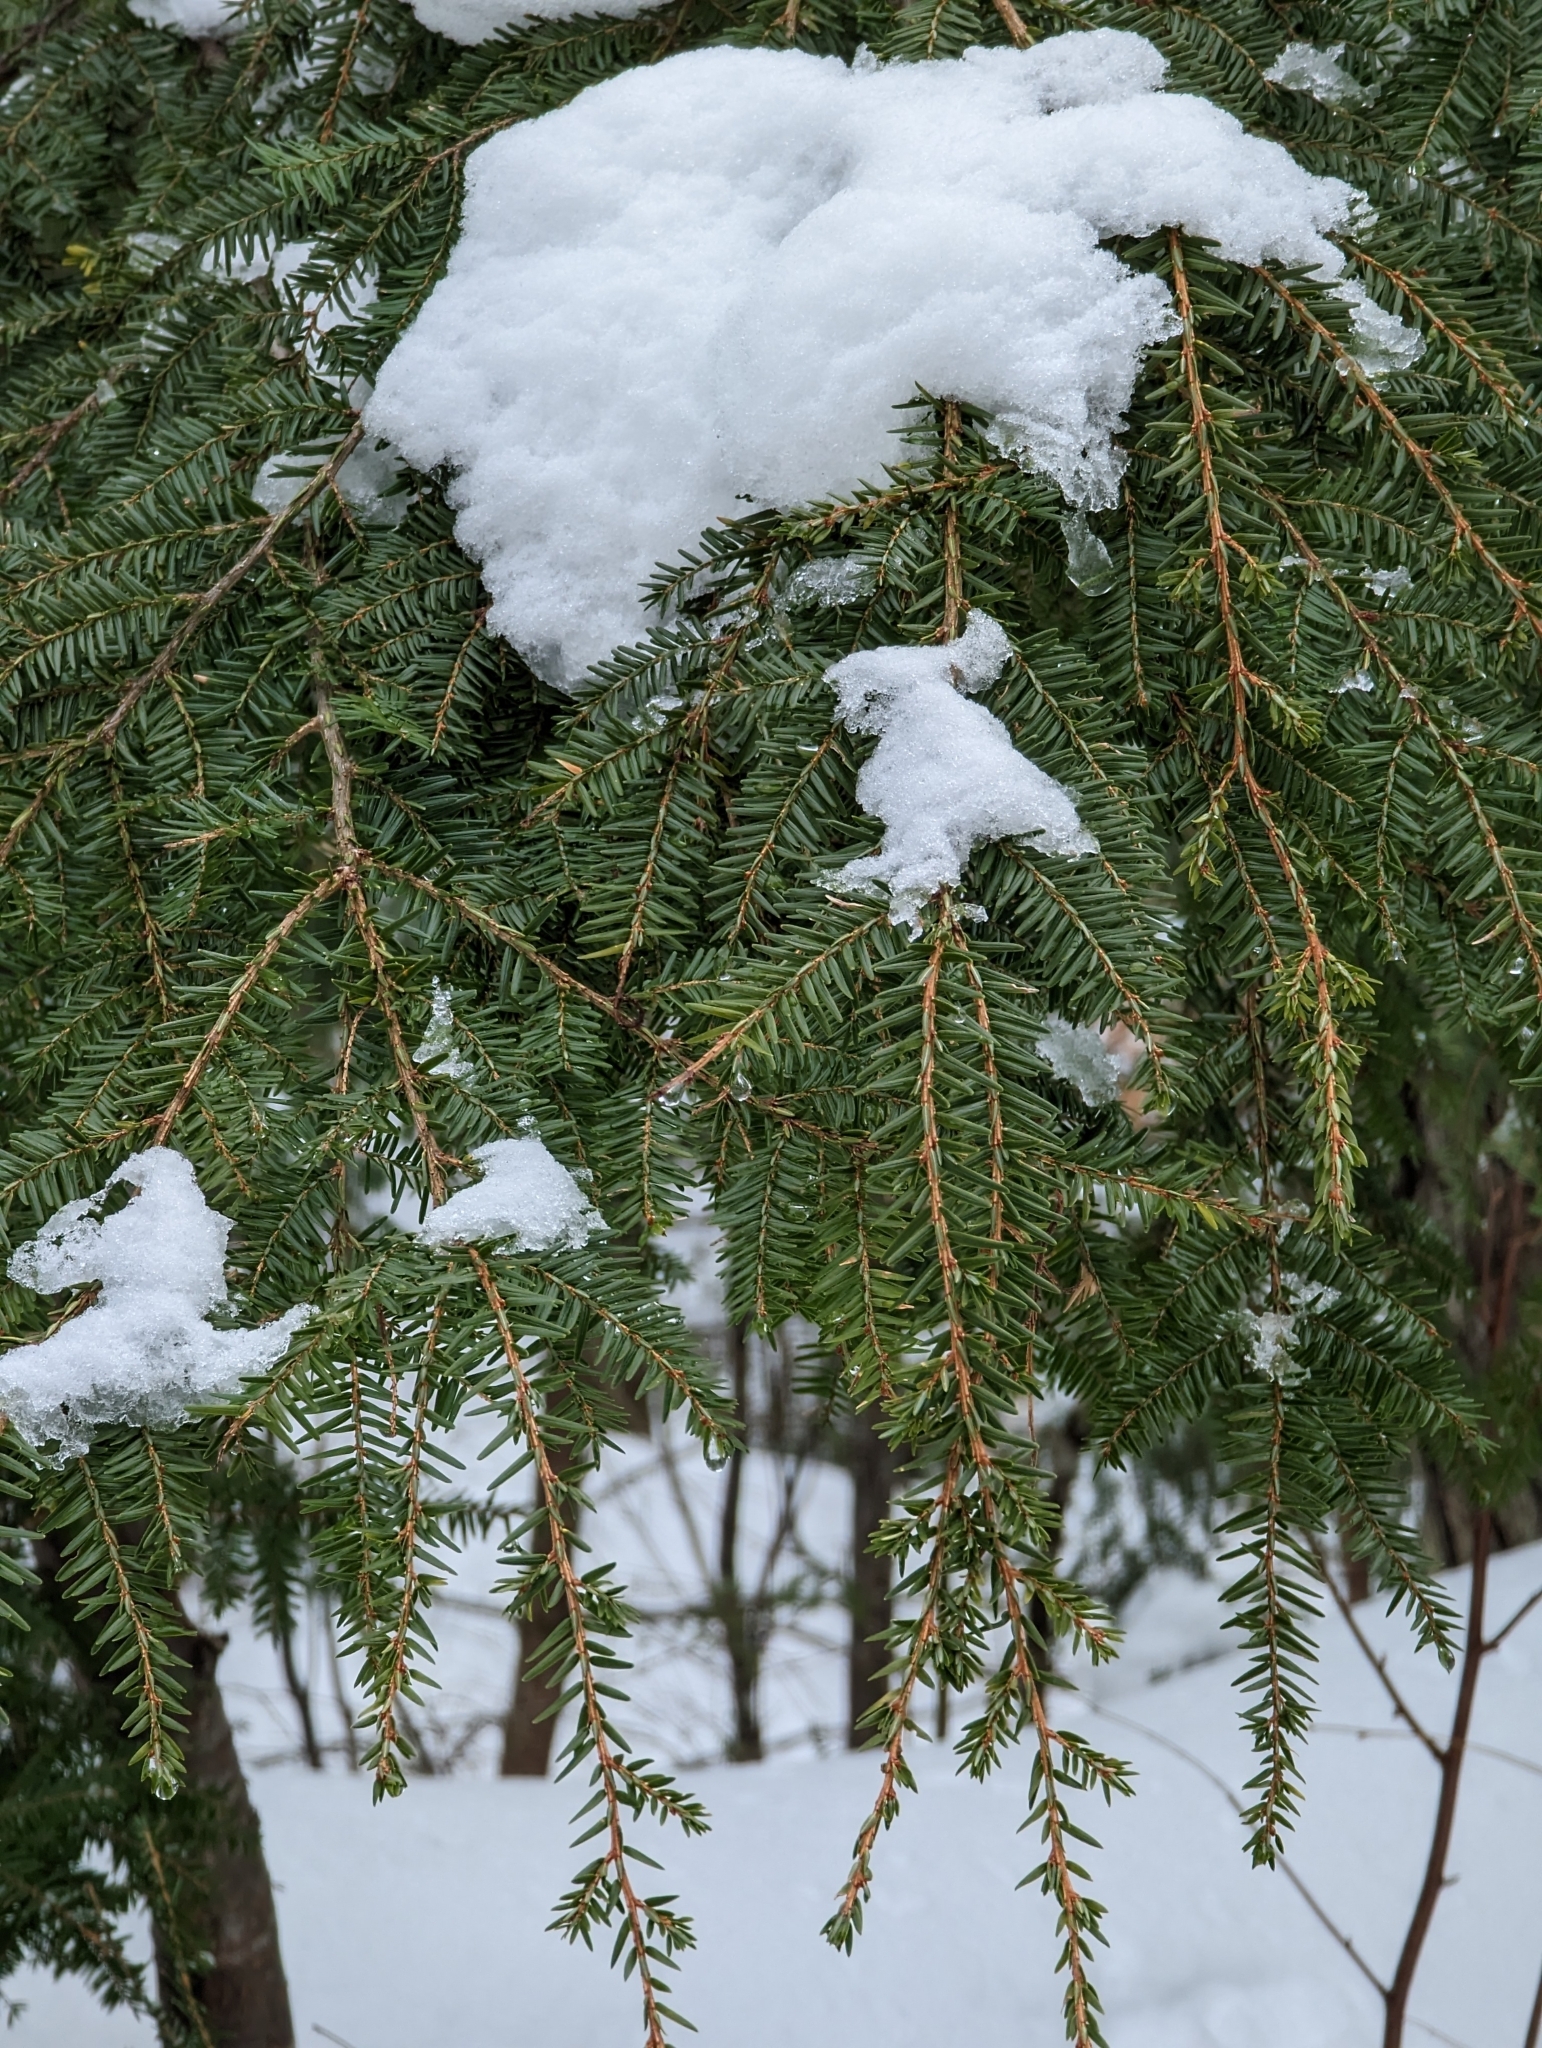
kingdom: Plantae
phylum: Tracheophyta
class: Pinopsida
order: Pinales
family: Pinaceae
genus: Tsuga
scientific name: Tsuga canadensis
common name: Eastern hemlock
